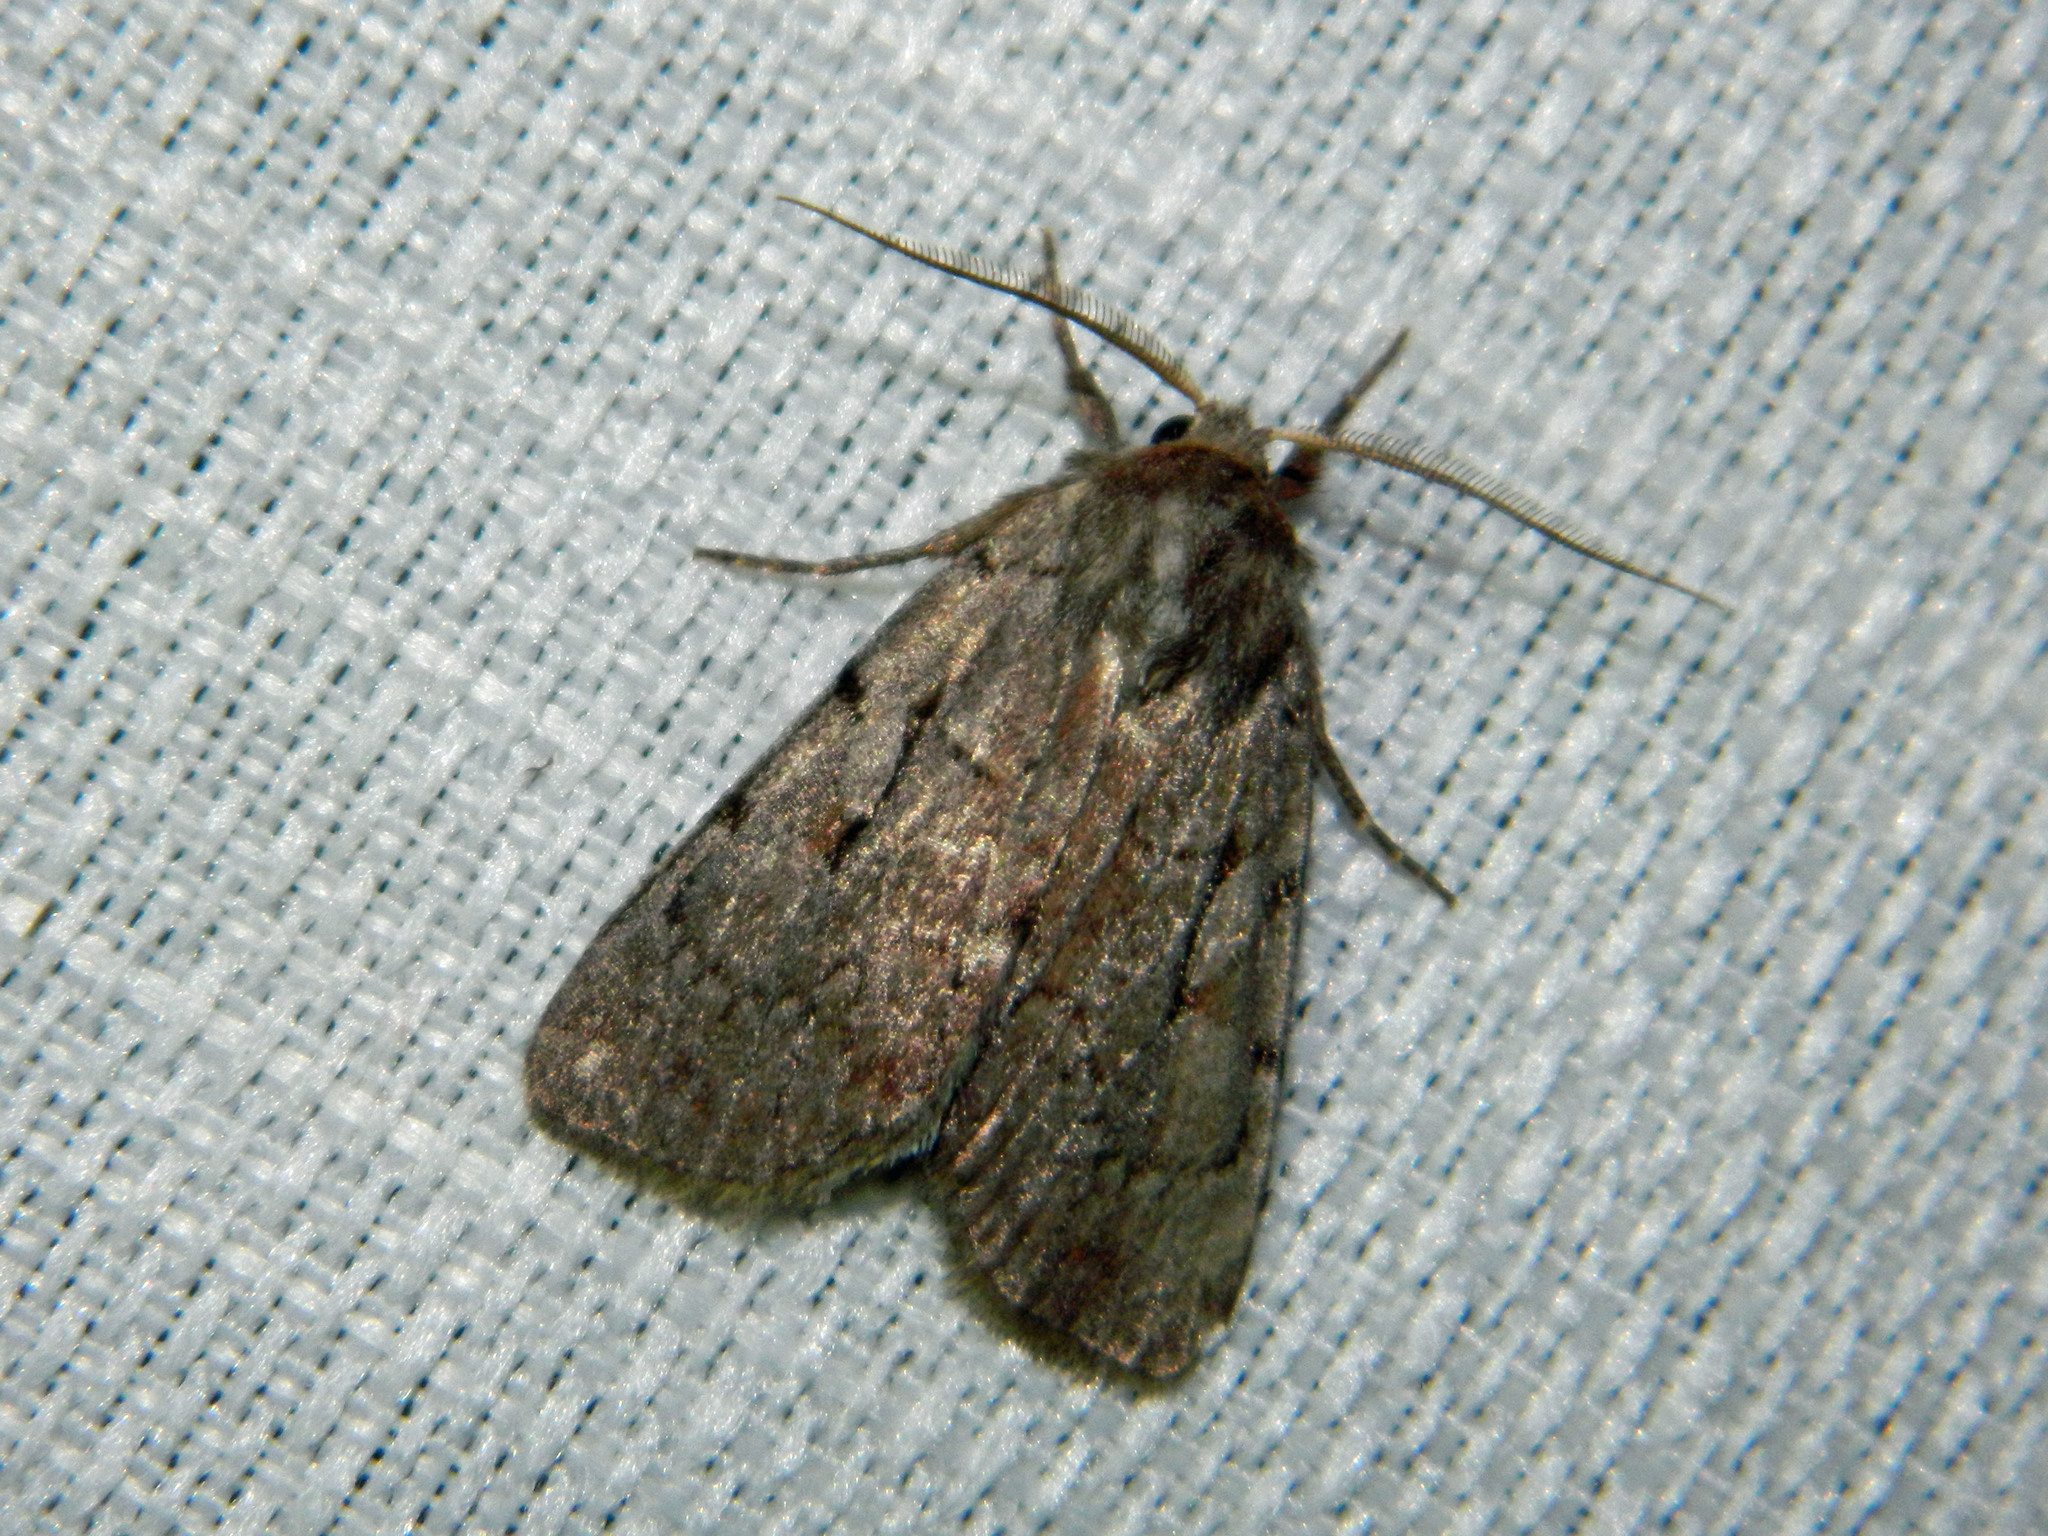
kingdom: Animalia
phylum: Arthropoda
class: Insecta
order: Lepidoptera
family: Noctuidae
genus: Xestia
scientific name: Xestia praevia
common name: Praevia dart
